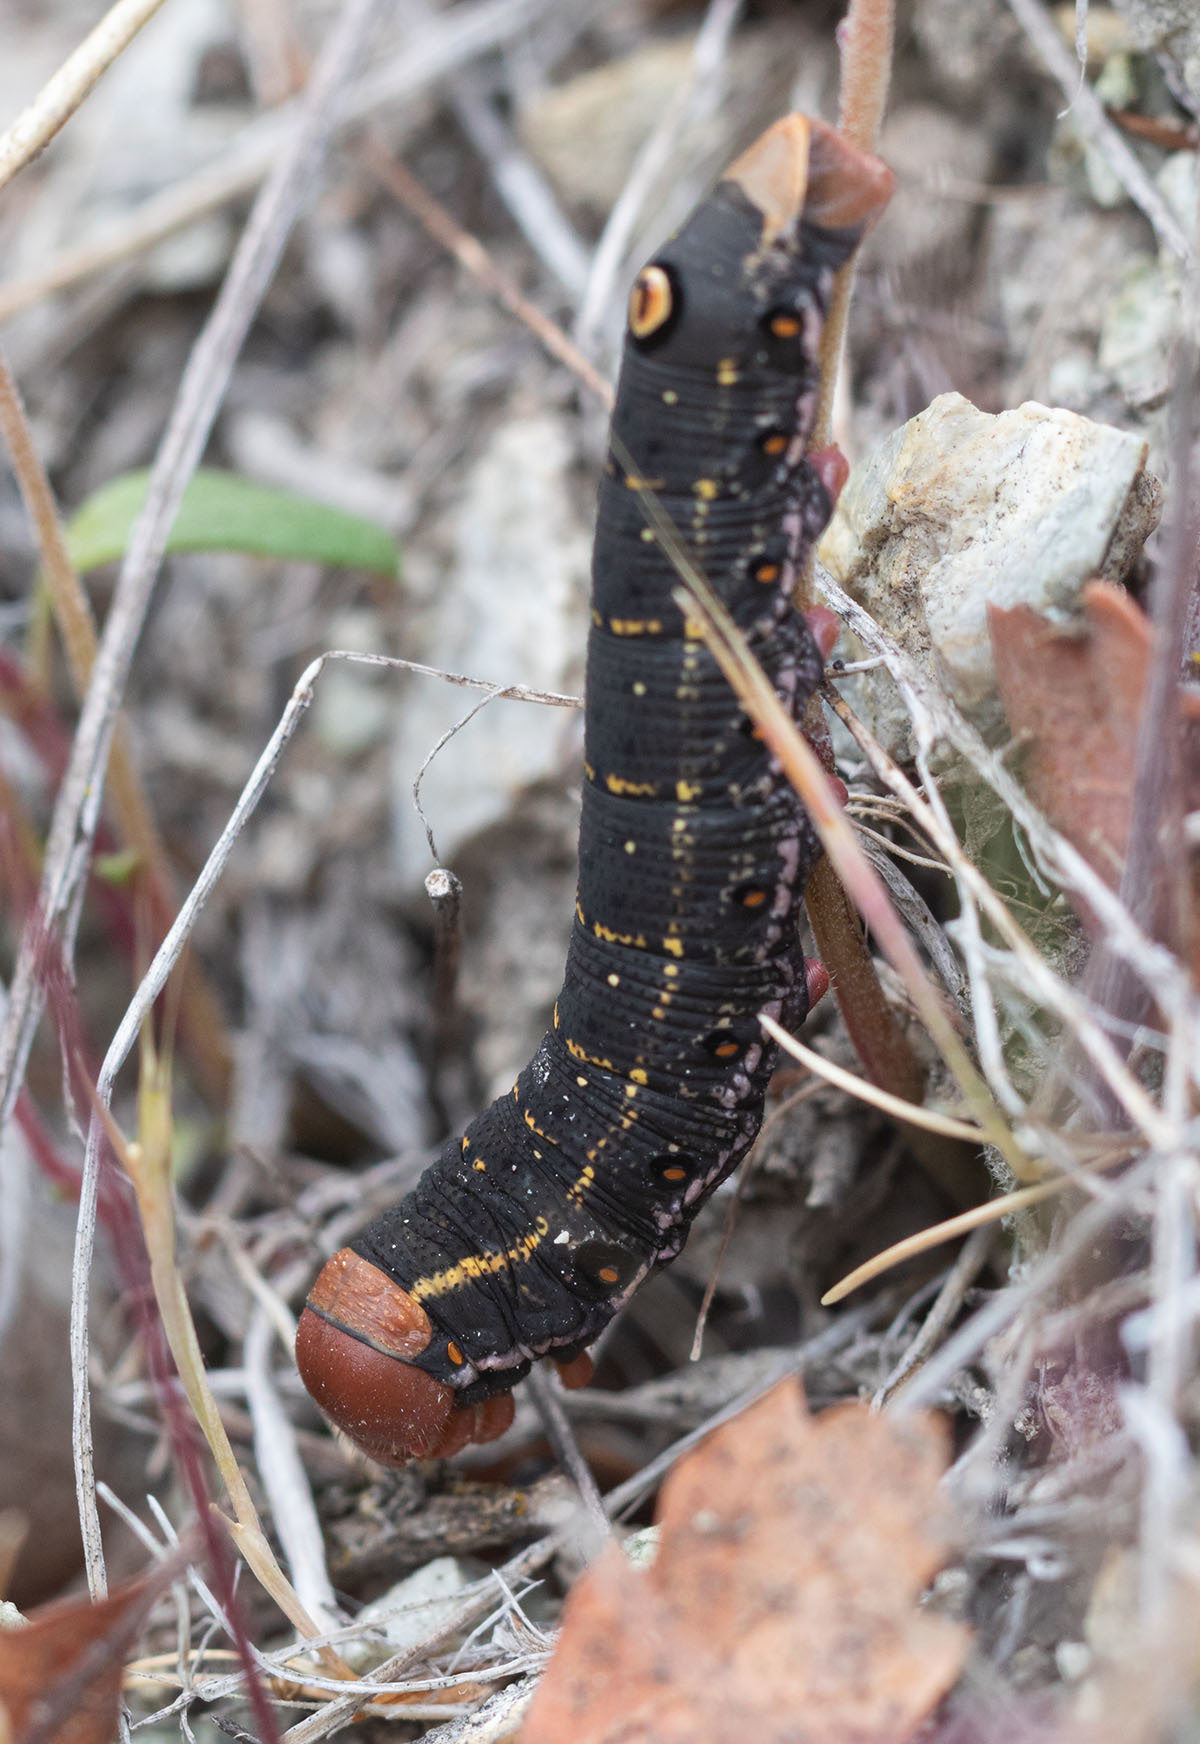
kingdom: Animalia
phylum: Arthropoda
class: Insecta
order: Lepidoptera
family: Sphingidae
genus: Proserpinus
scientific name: Proserpinus lucidus
